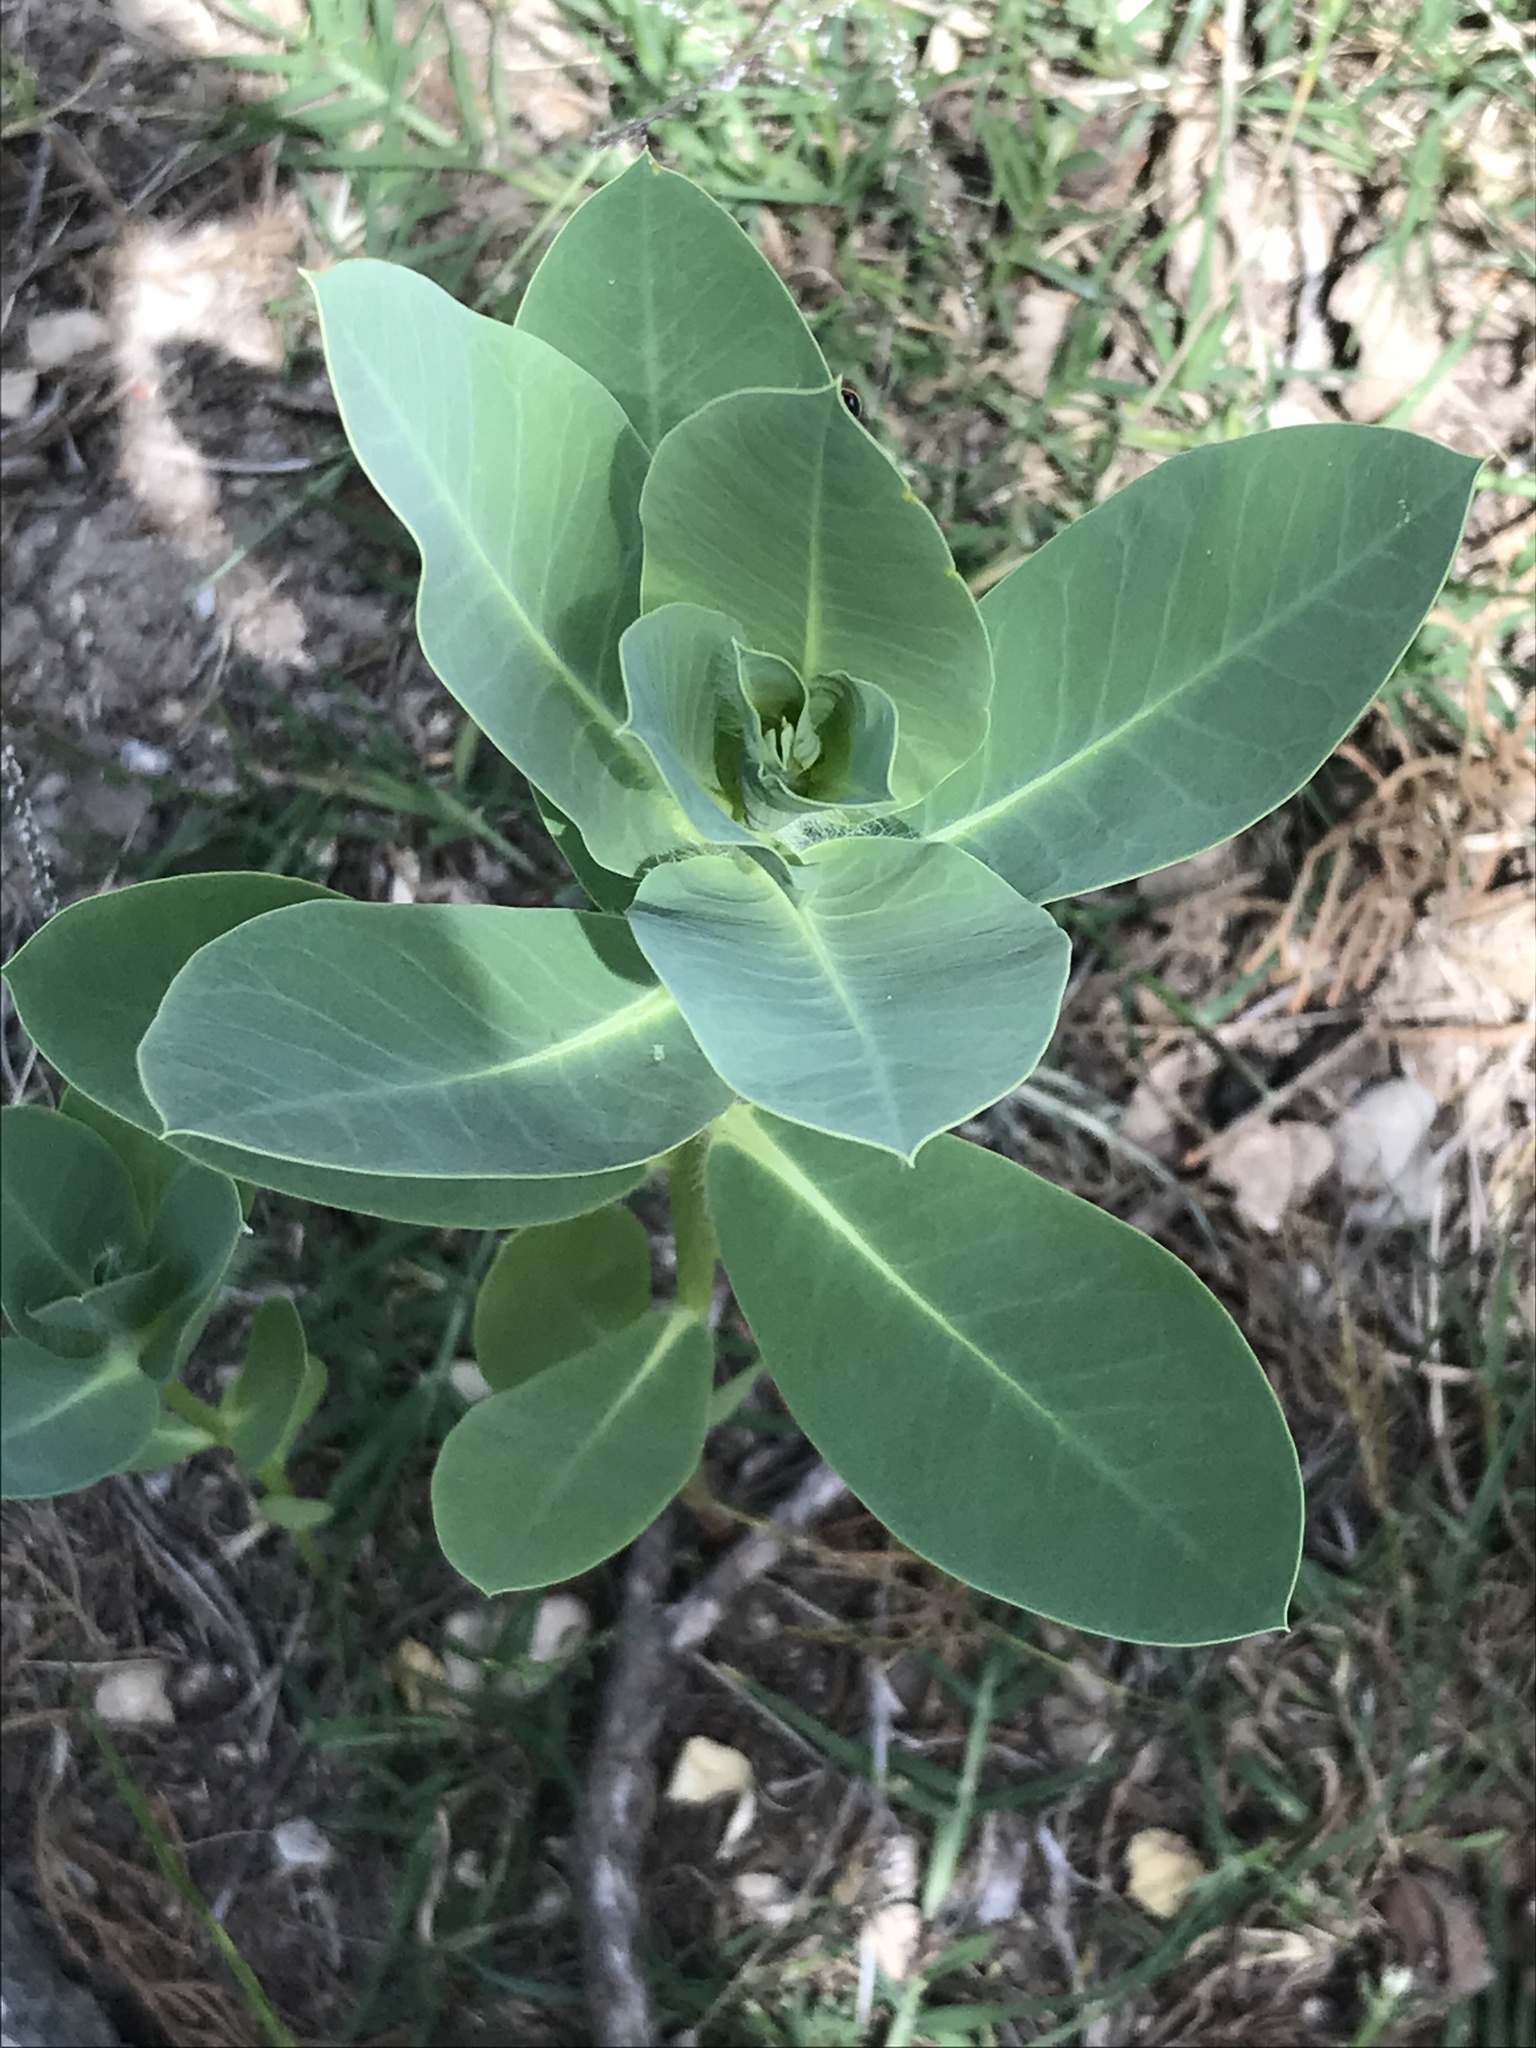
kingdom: Plantae
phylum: Tracheophyta
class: Magnoliopsida
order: Malpighiales
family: Euphorbiaceae
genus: Euphorbia
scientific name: Euphorbia marginata
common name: Ghostweed
